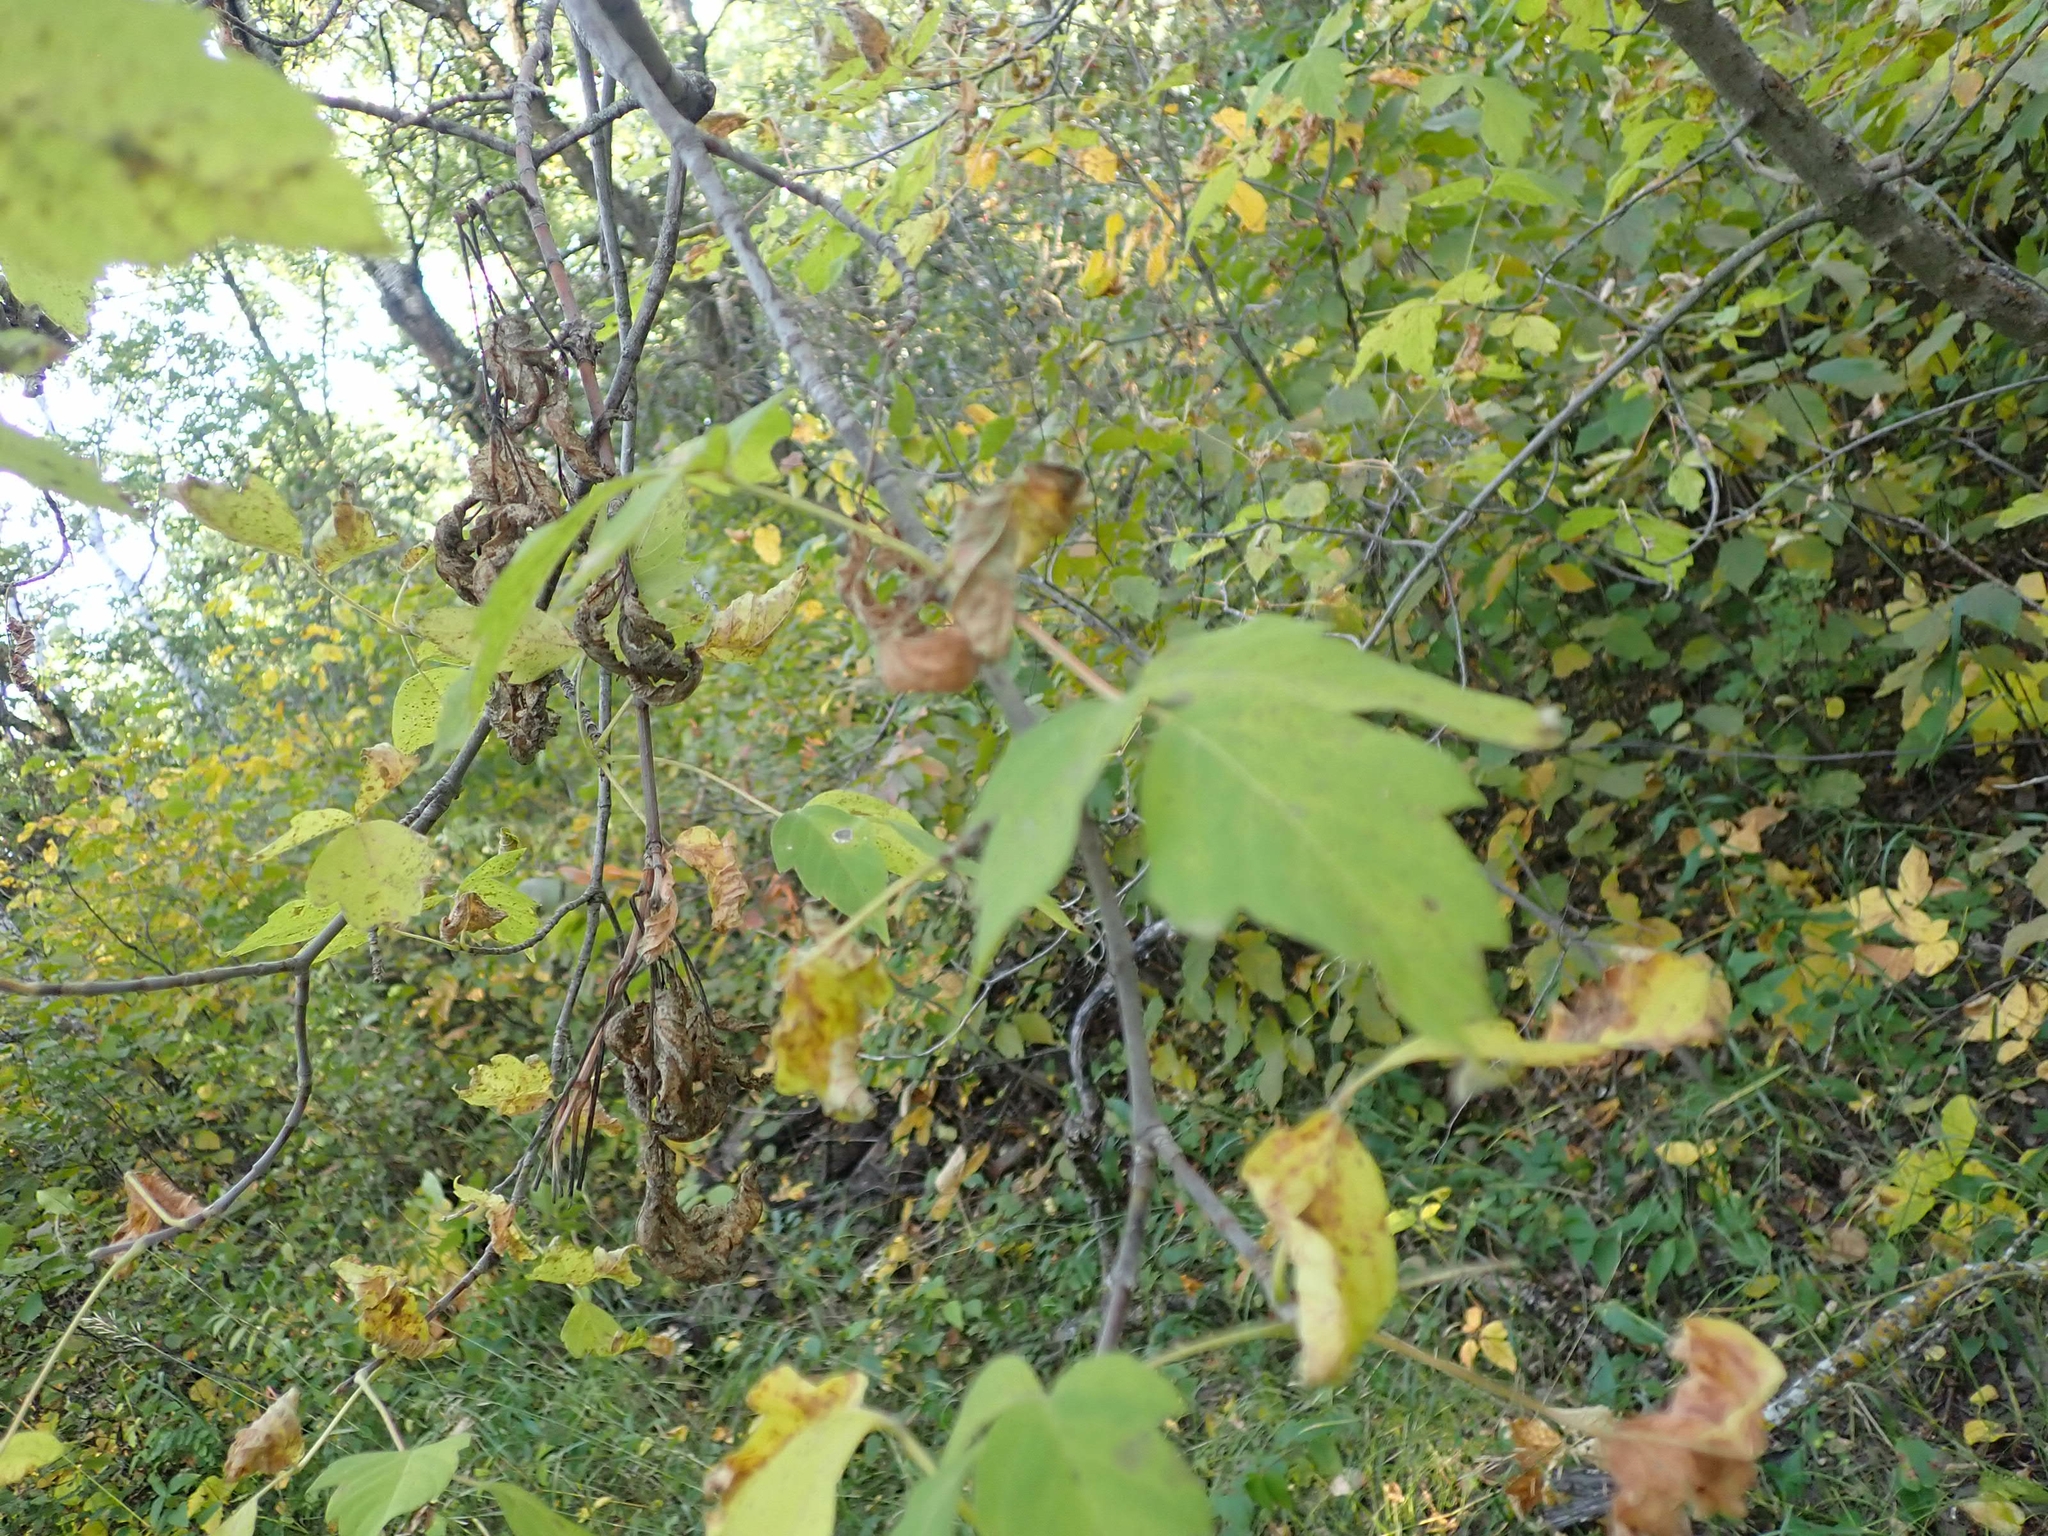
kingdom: Plantae
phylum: Tracheophyta
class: Magnoliopsida
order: Sapindales
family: Sapindaceae
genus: Acer
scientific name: Acer negundo
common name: Ashleaf maple
